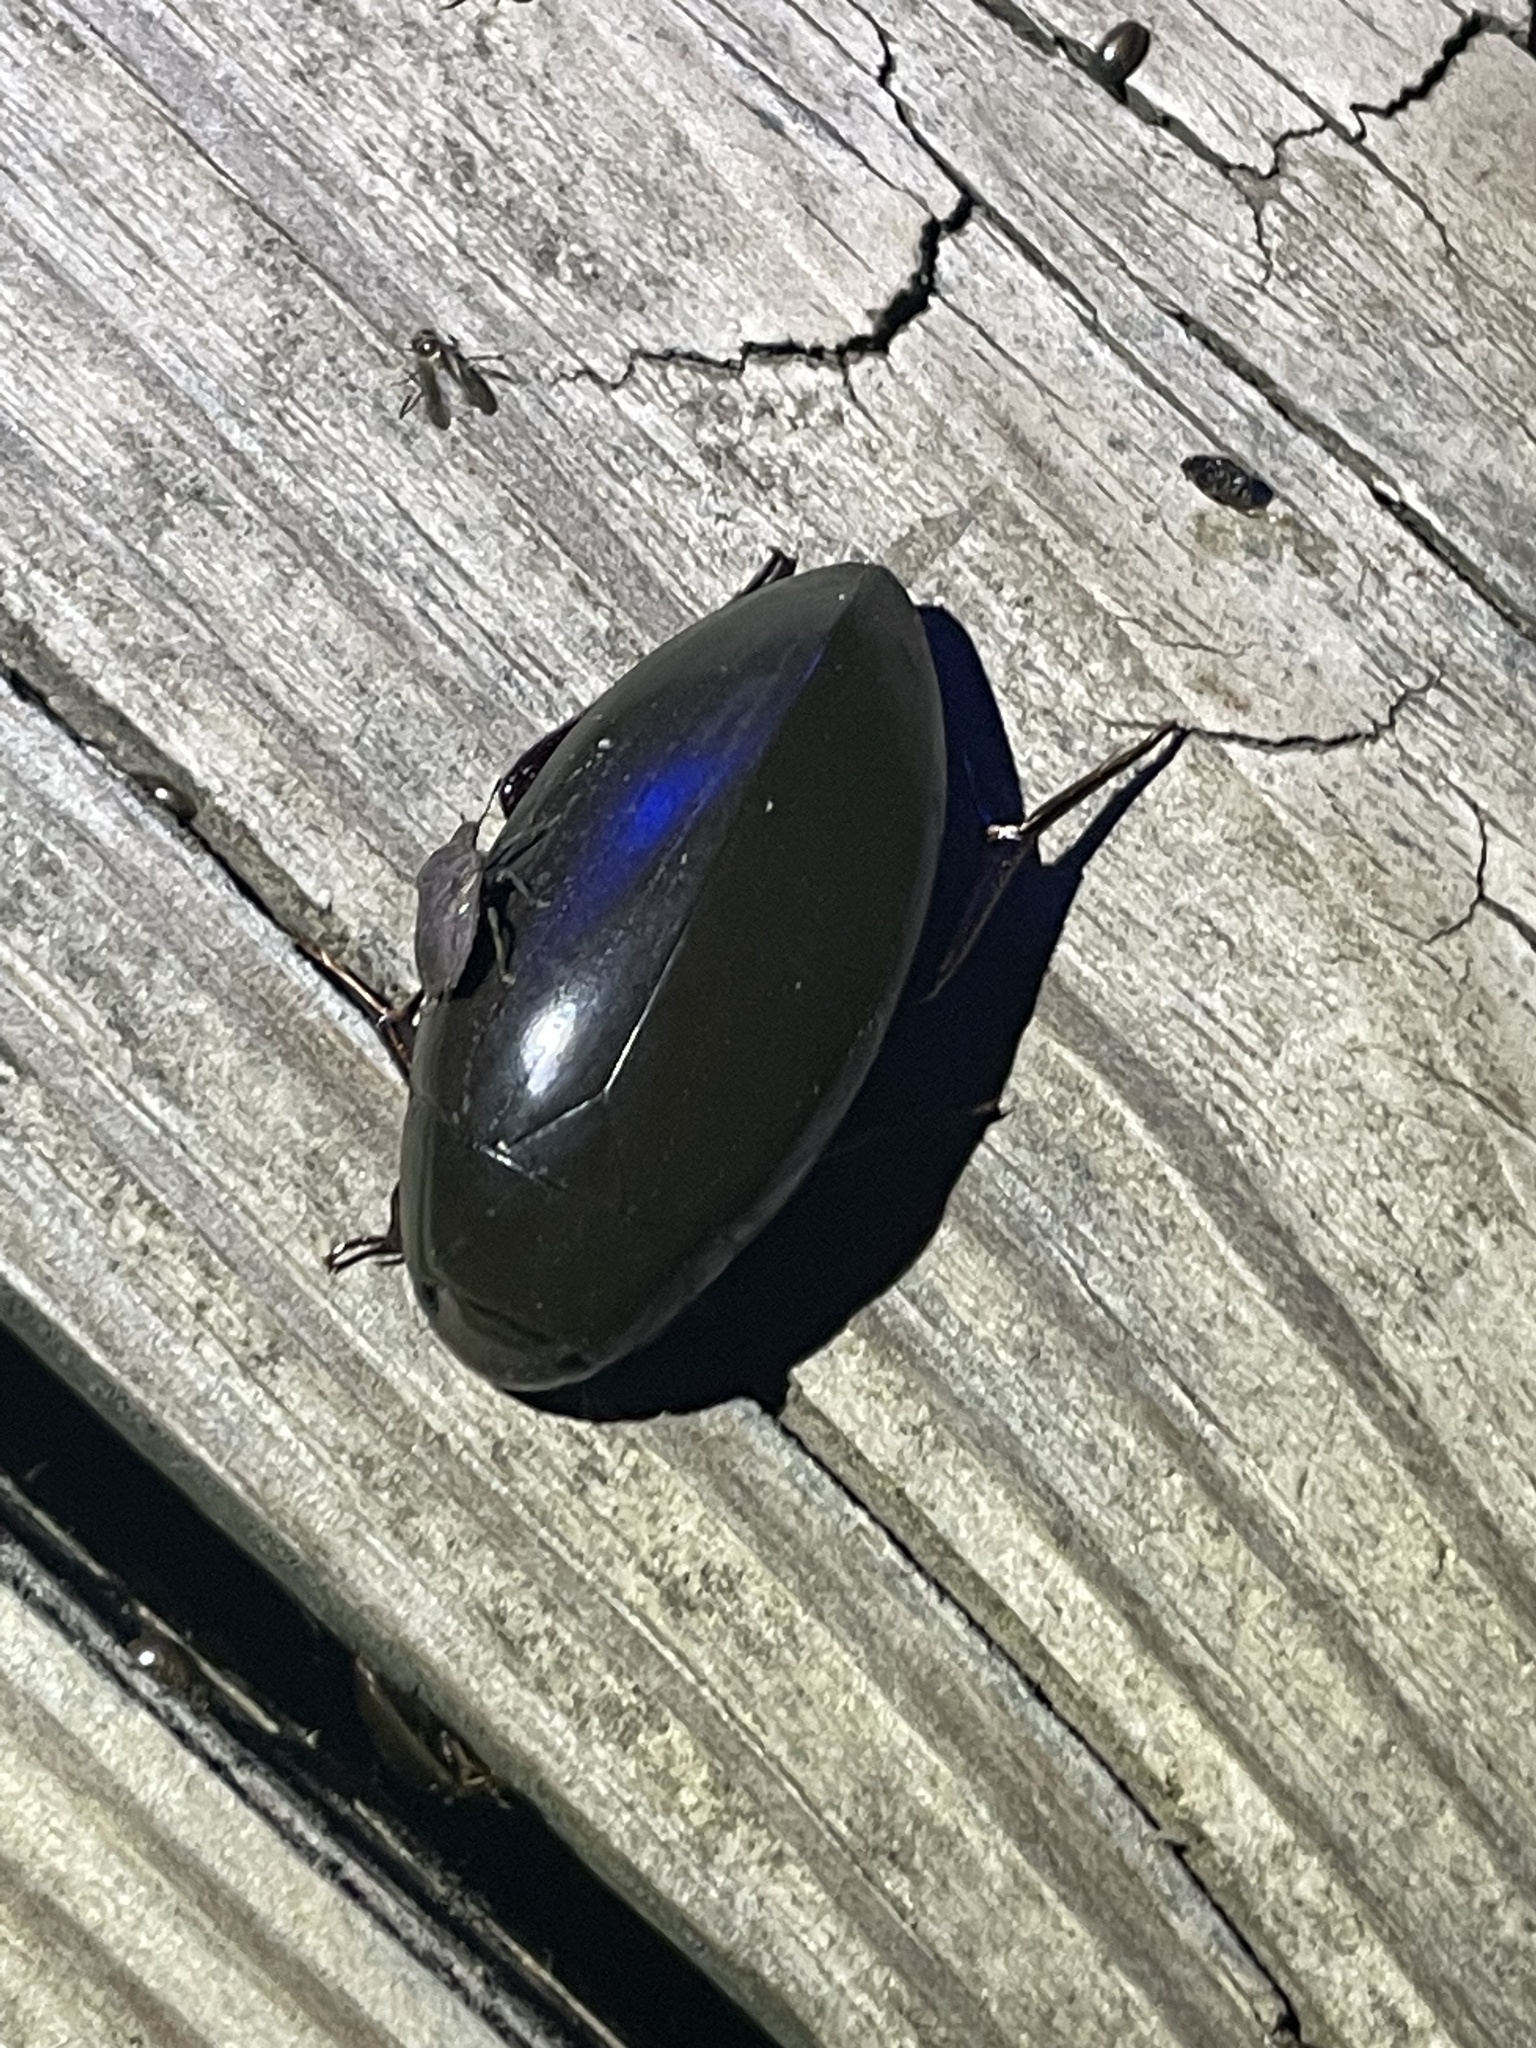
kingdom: Animalia
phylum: Arthropoda
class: Insecta
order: Coleoptera
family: Hydrophilidae
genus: Hydrophilus
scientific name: Hydrophilus
